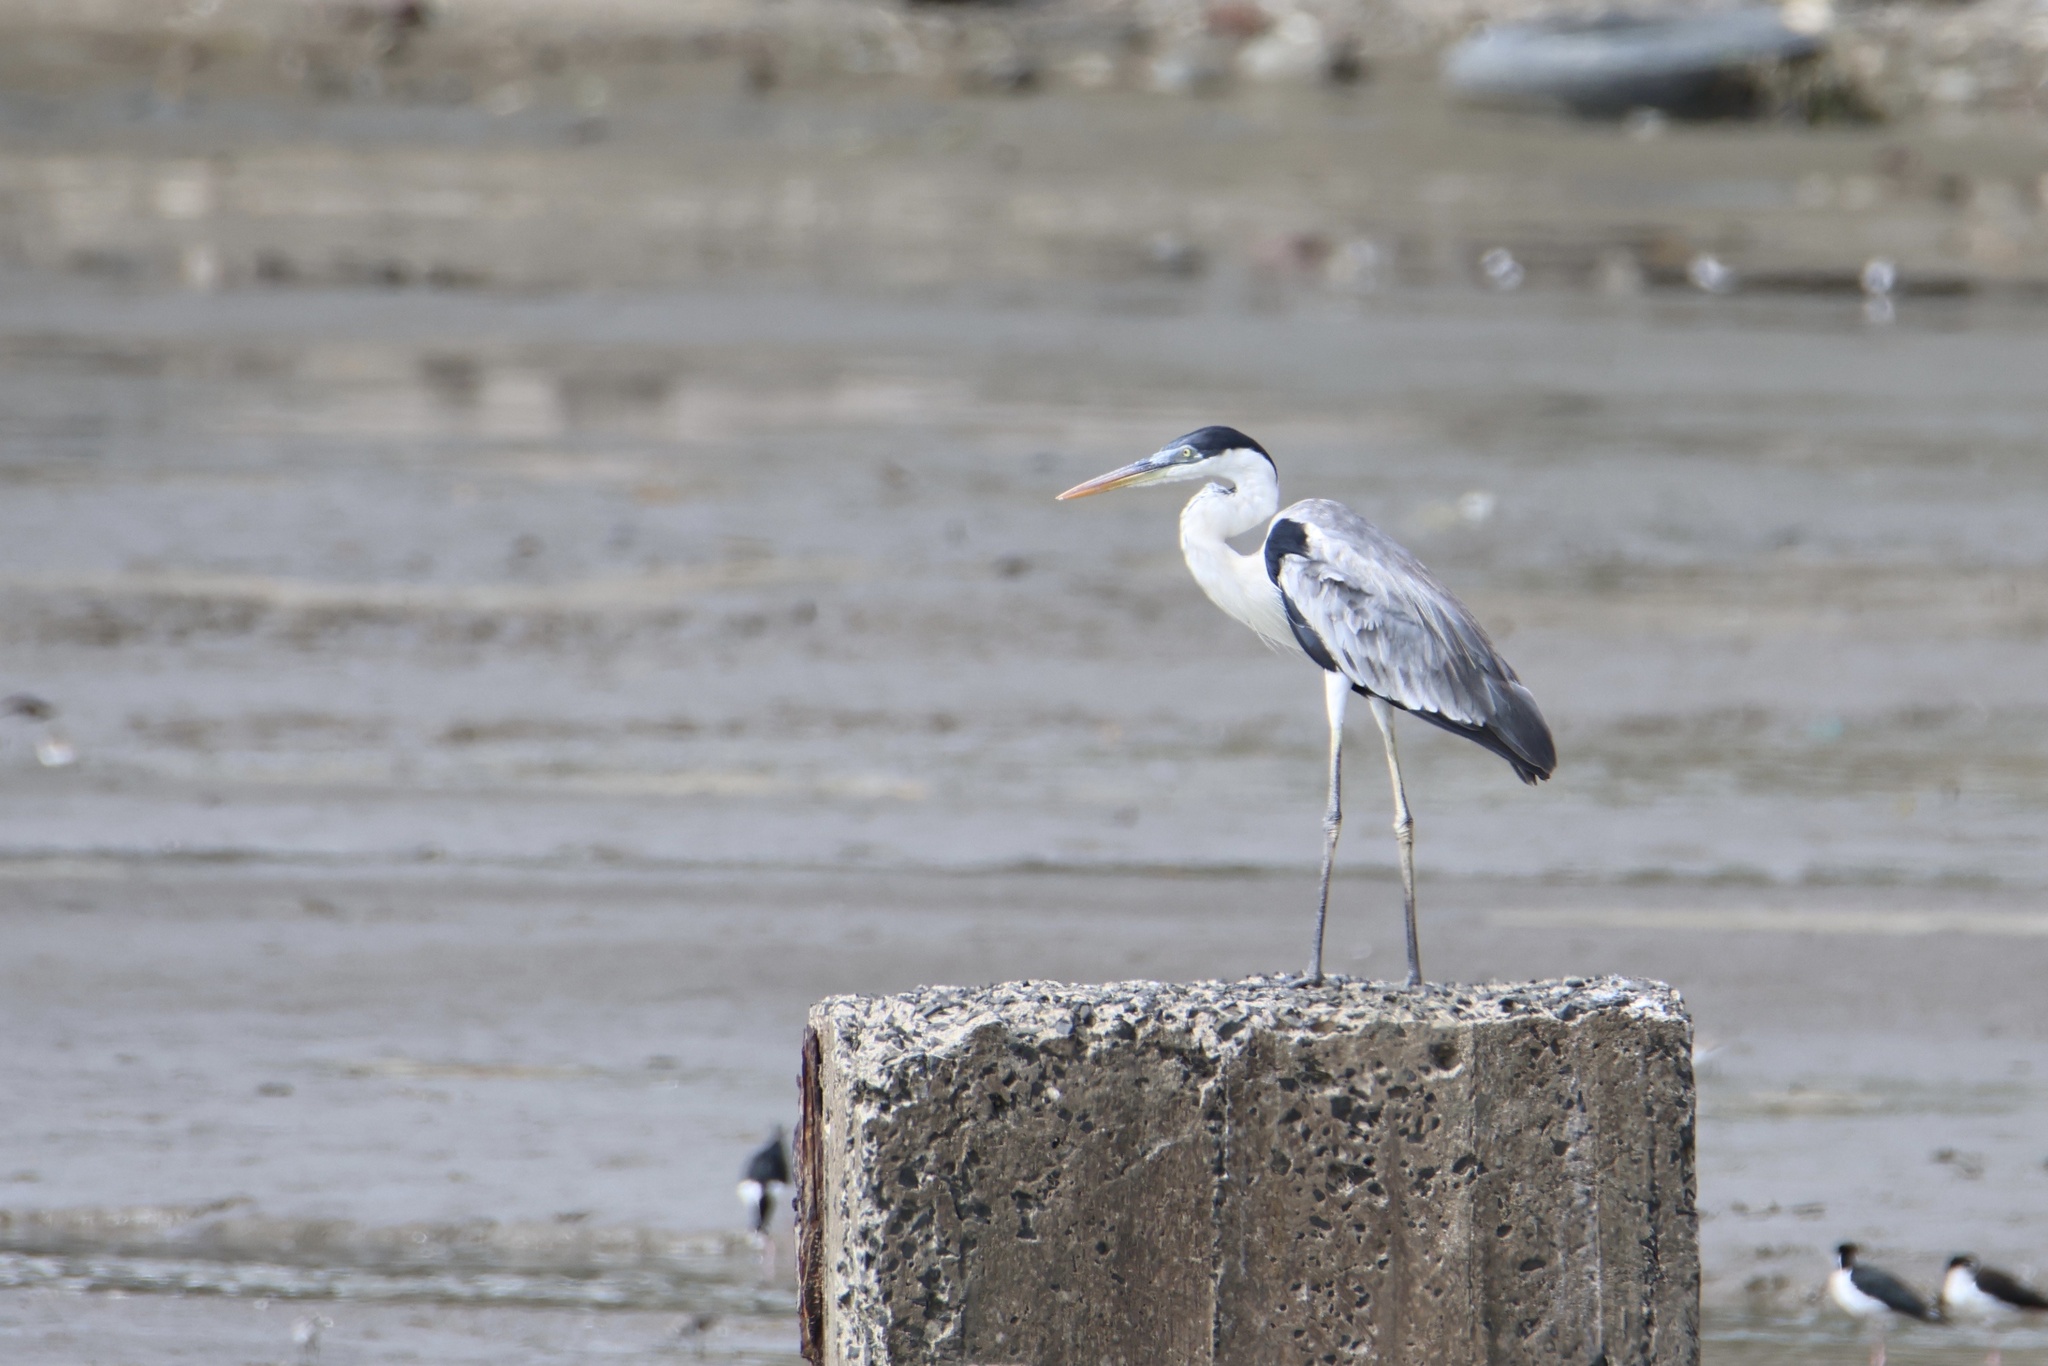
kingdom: Animalia
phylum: Chordata
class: Aves
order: Pelecaniformes
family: Ardeidae
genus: Ardea
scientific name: Ardea cocoi
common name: Cocoi heron
